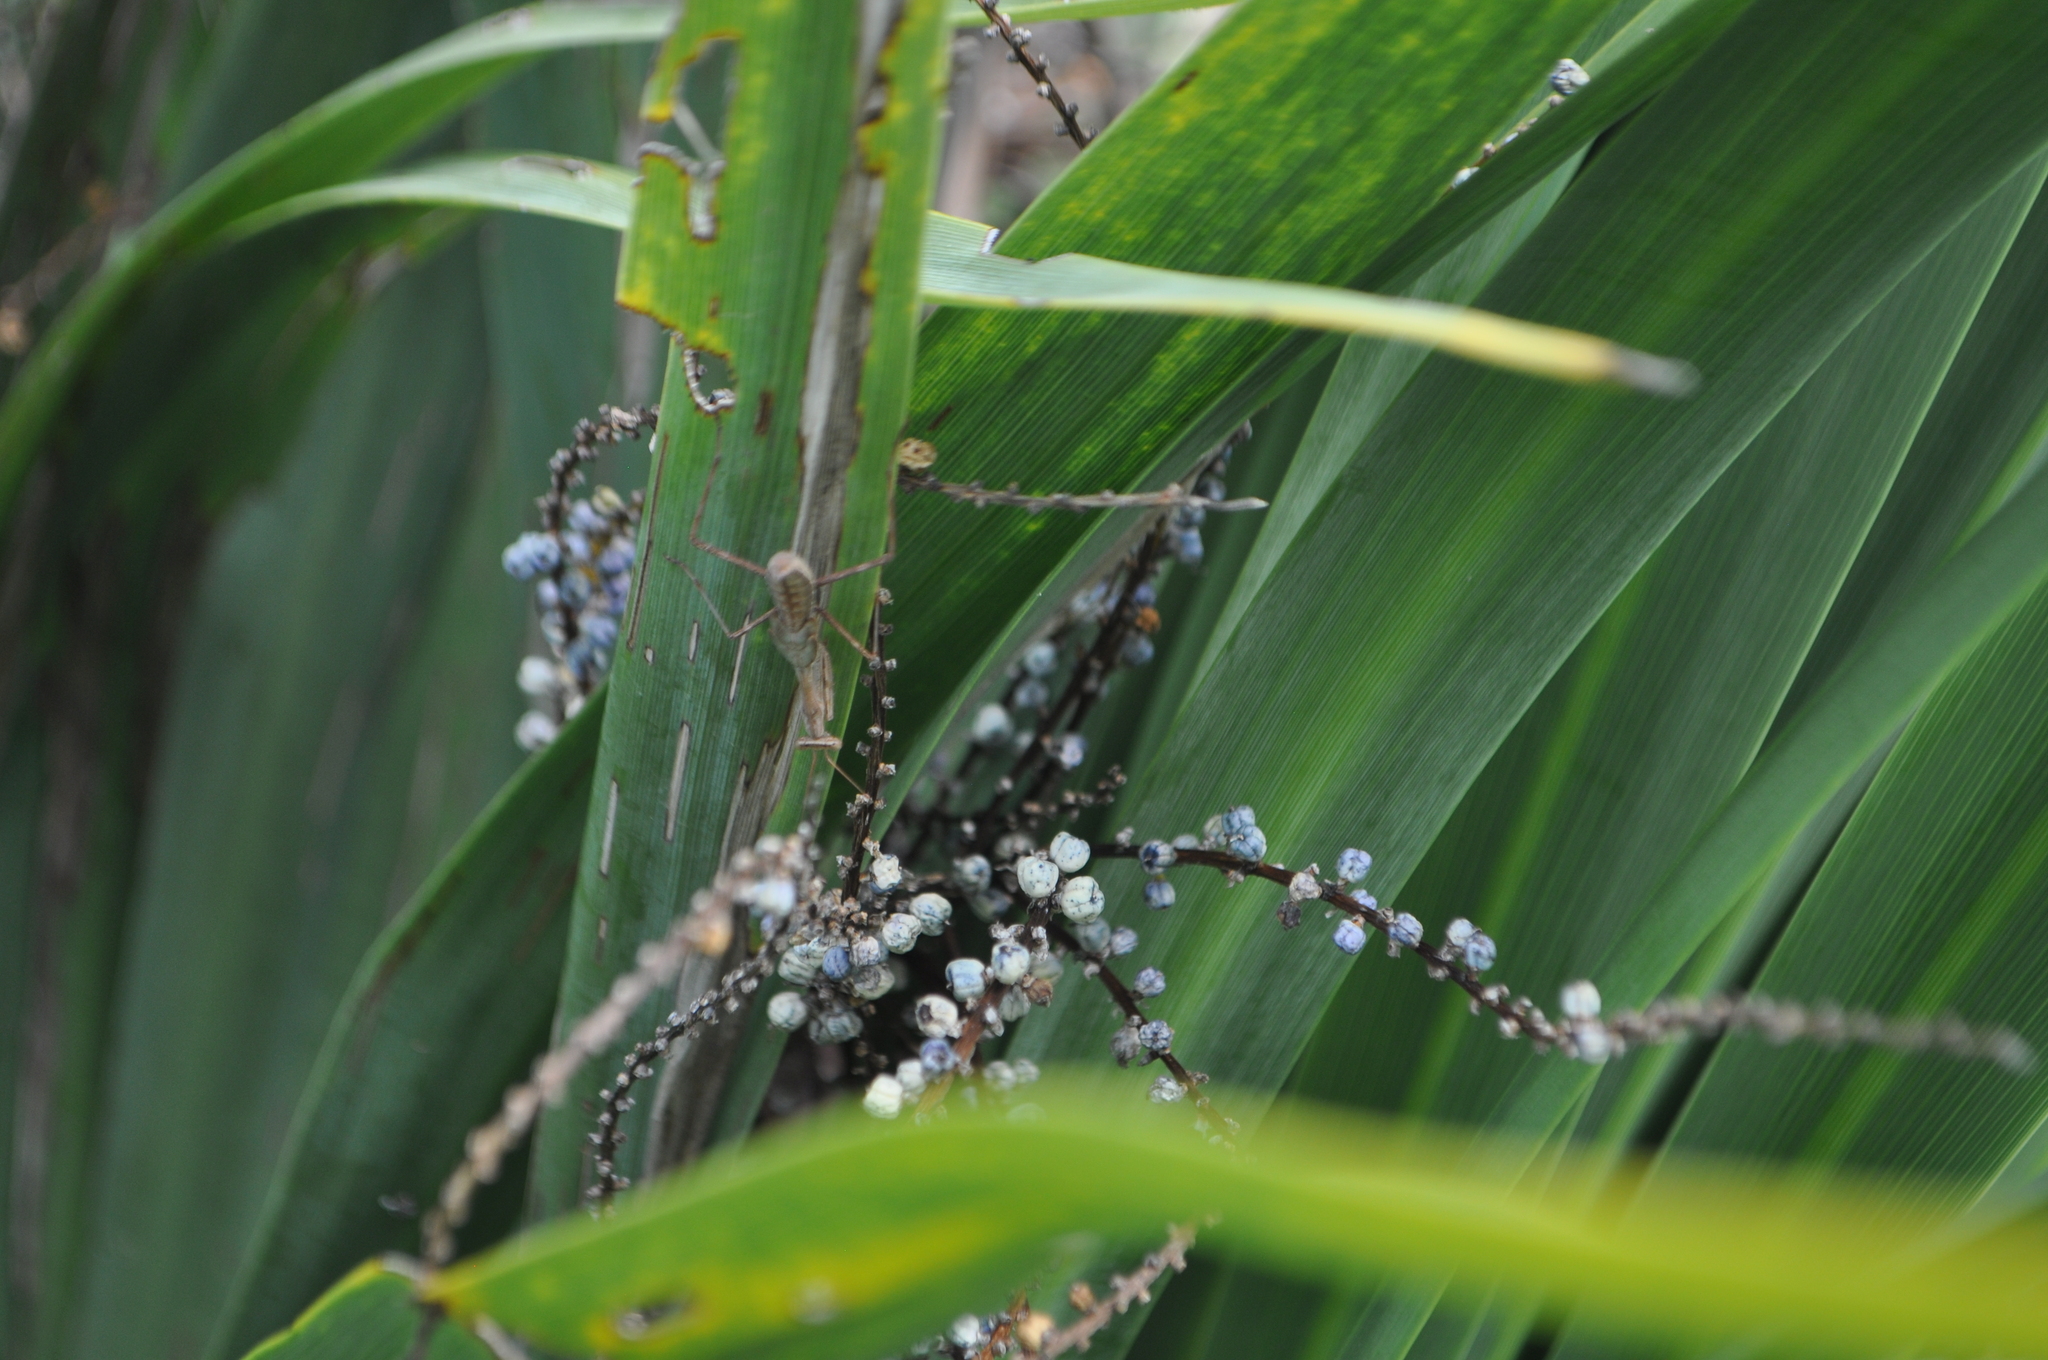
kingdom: Animalia
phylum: Arthropoda
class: Insecta
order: Mantodea
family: Miomantidae
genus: Miomantis
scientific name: Miomantis caffra
